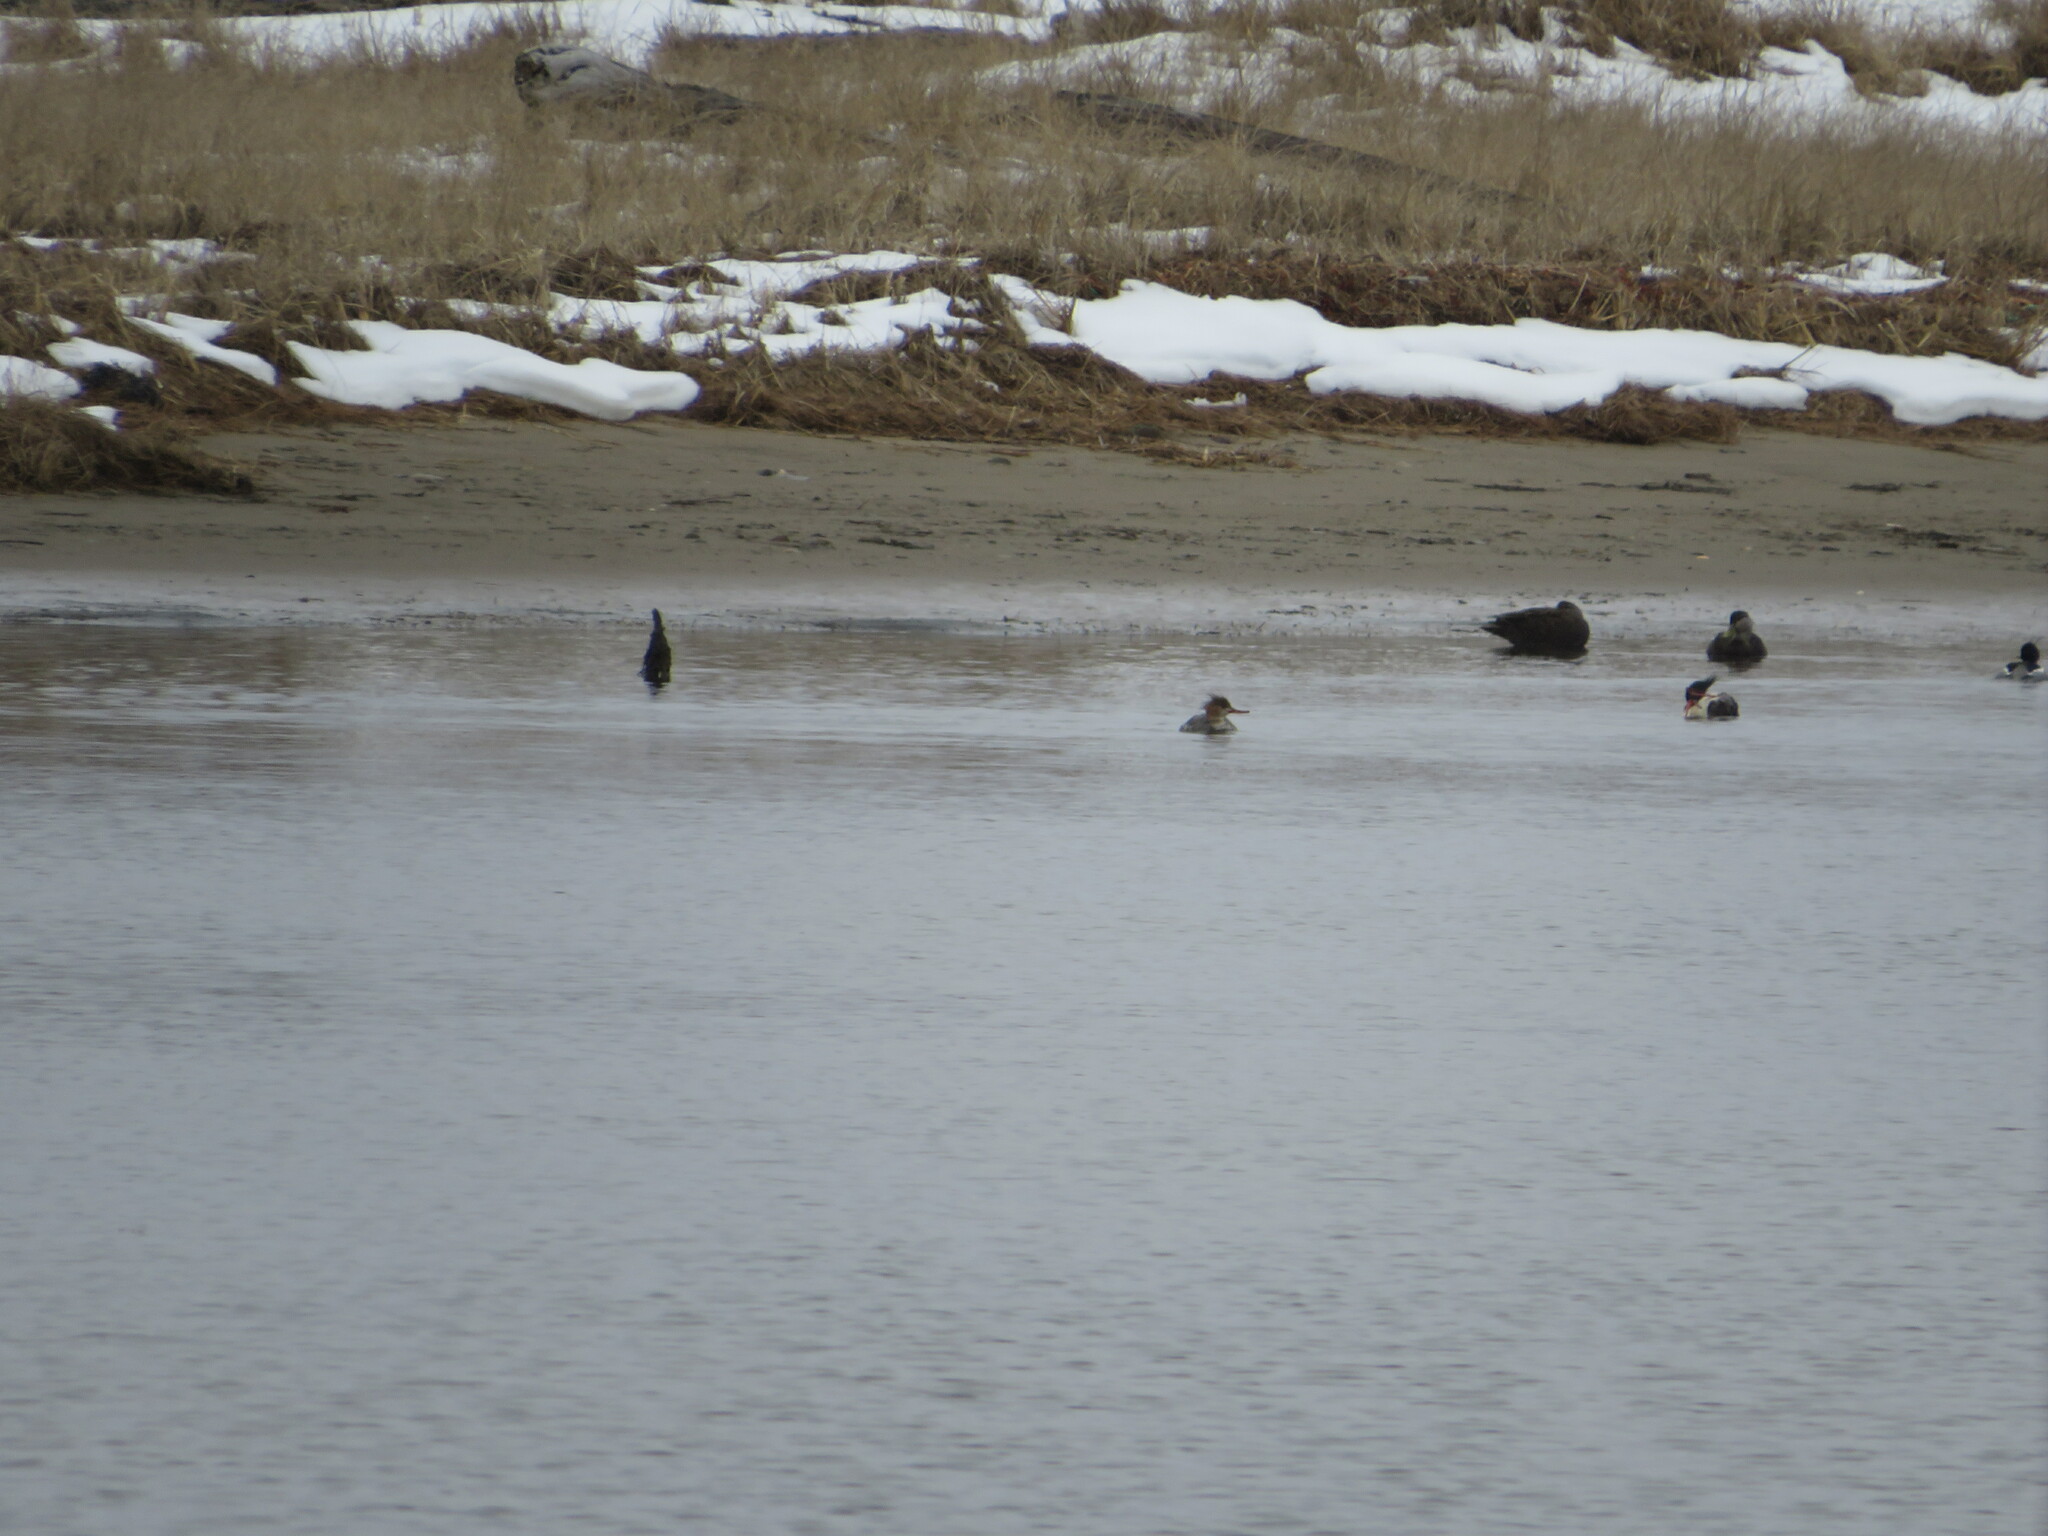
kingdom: Animalia
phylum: Chordata
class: Aves
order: Anseriformes
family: Anatidae
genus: Mergus
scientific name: Mergus serrator
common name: Red-breasted merganser
